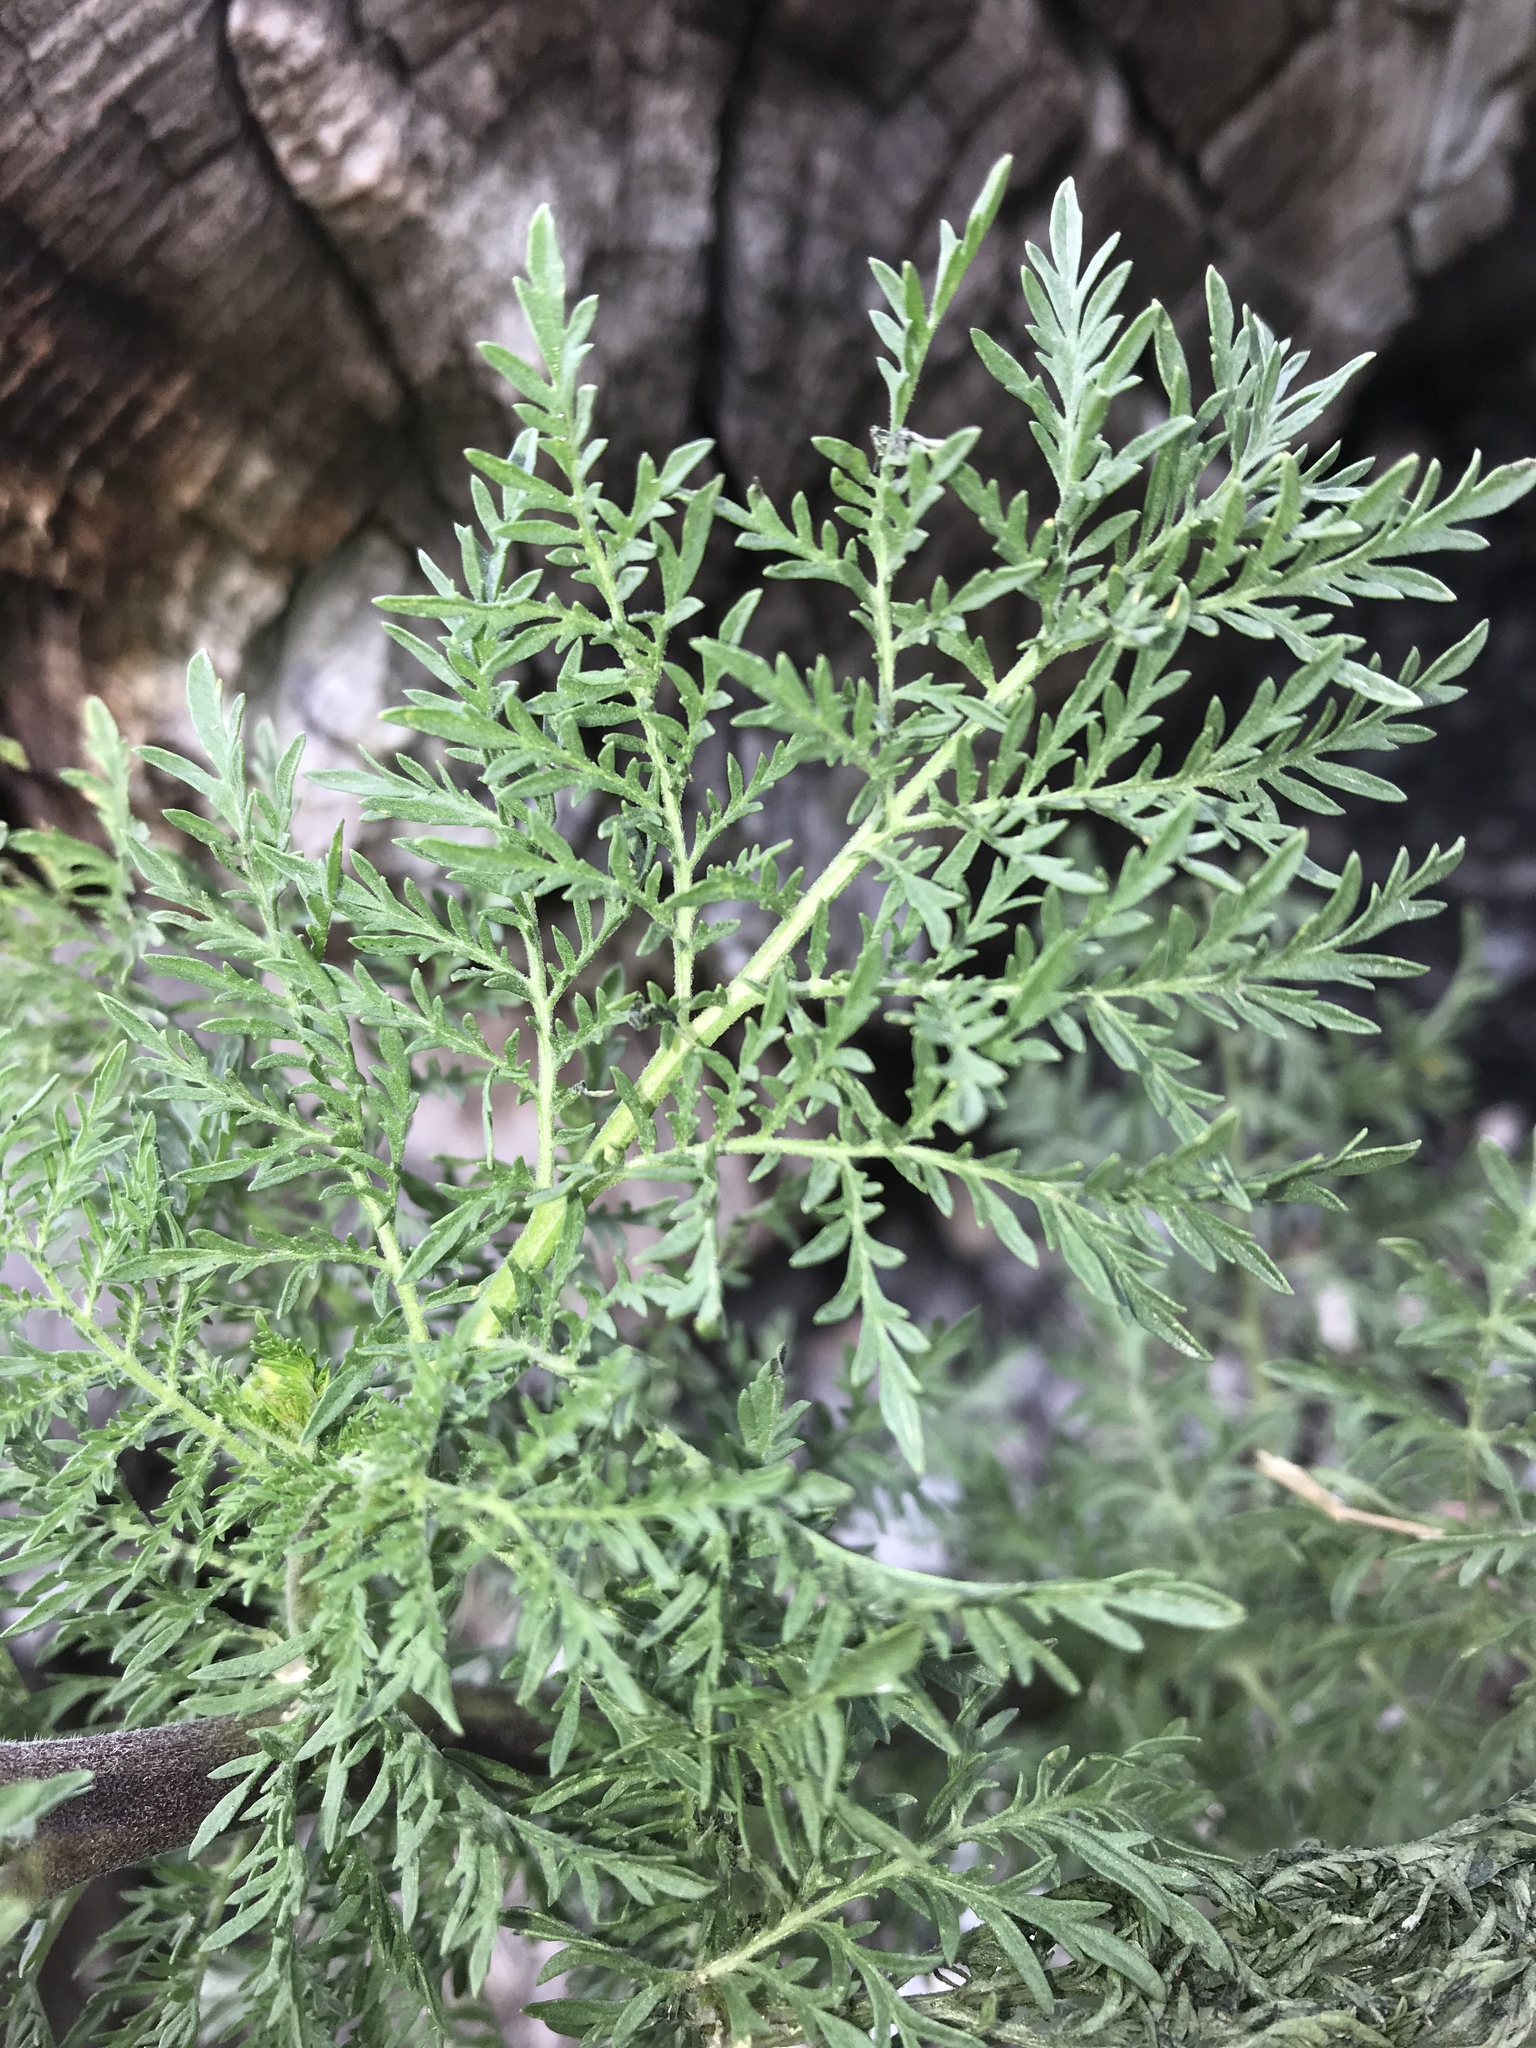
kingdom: Plantae
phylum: Tracheophyta
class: Magnoliopsida
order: Brassicales
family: Brassicaceae
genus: Descurainia
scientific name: Descurainia sophia
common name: Flixweed
